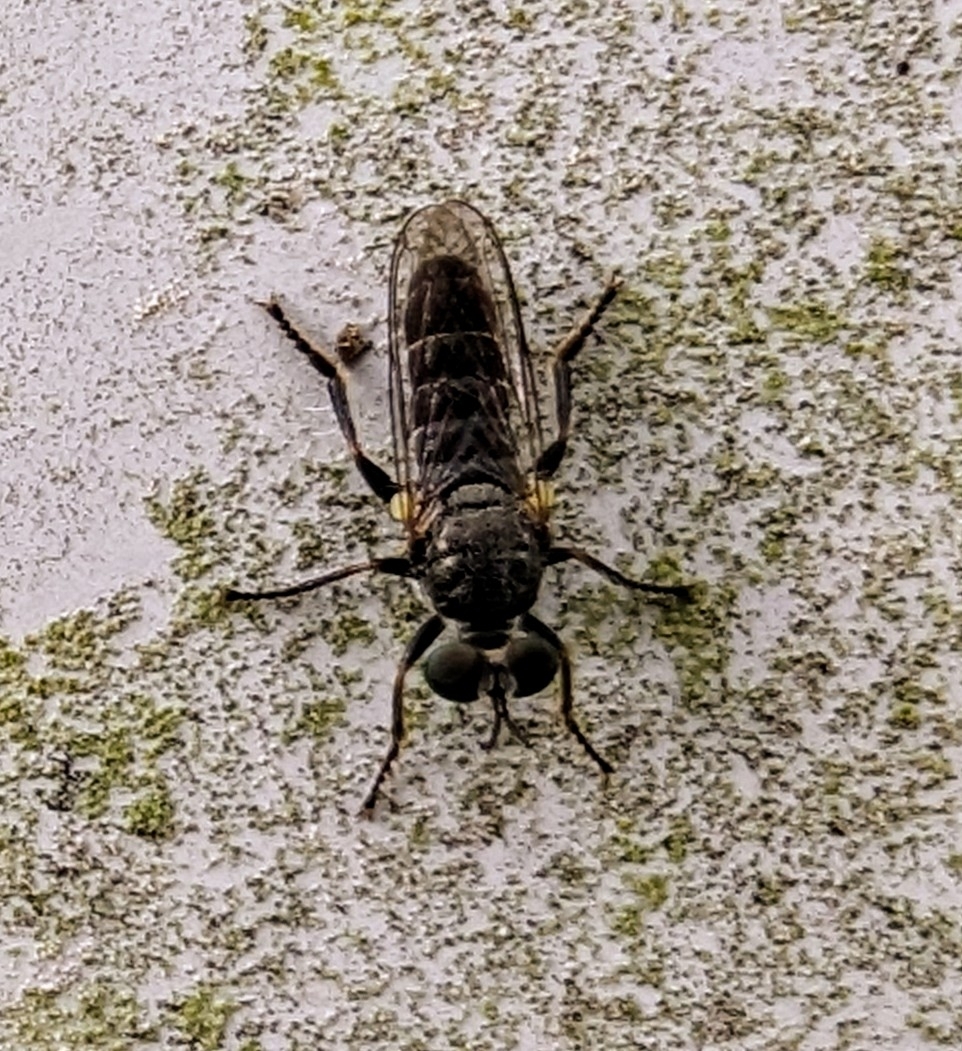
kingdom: Animalia
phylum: Arthropoda
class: Insecta
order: Diptera
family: Asilidae
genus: Atomosia
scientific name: Atomosia puella
